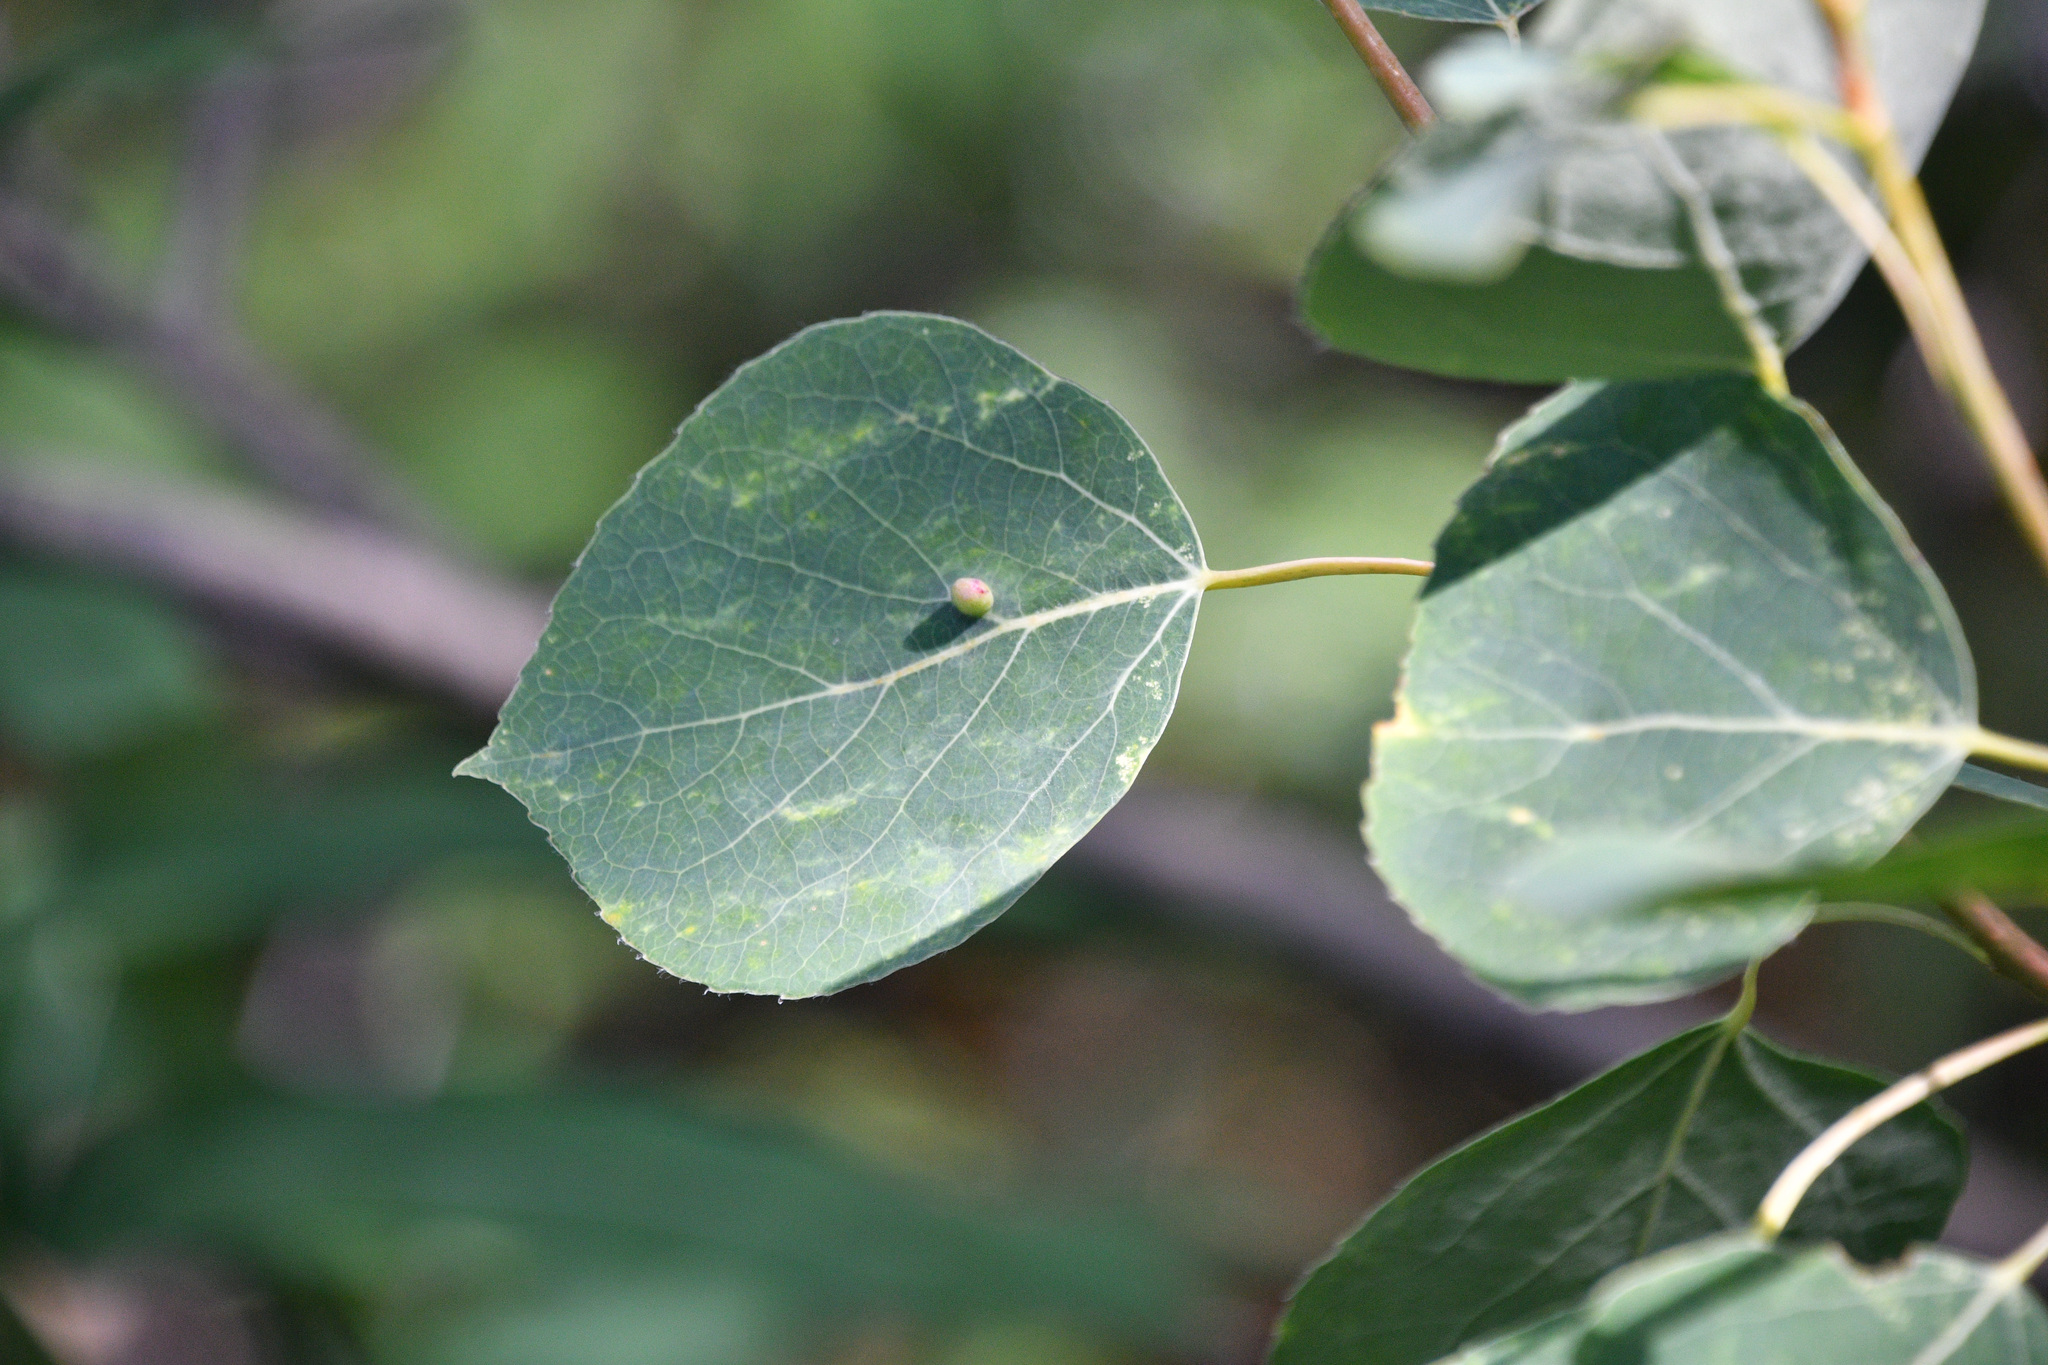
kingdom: Plantae
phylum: Tracheophyta
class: Magnoliopsida
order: Malpighiales
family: Salicaceae
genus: Populus
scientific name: Populus tremuloides
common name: Quaking aspen
